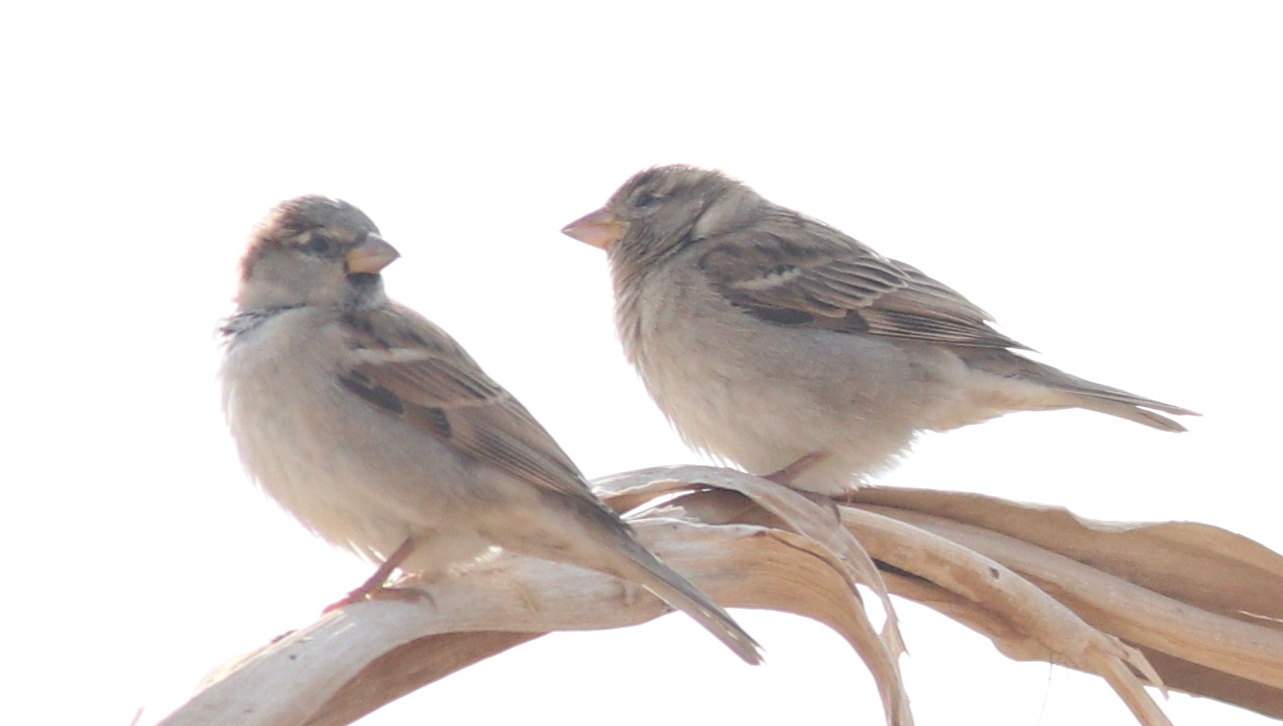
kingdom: Animalia
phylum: Chordata
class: Aves
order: Passeriformes
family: Passeridae
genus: Passer
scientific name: Passer domesticus
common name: House sparrow
